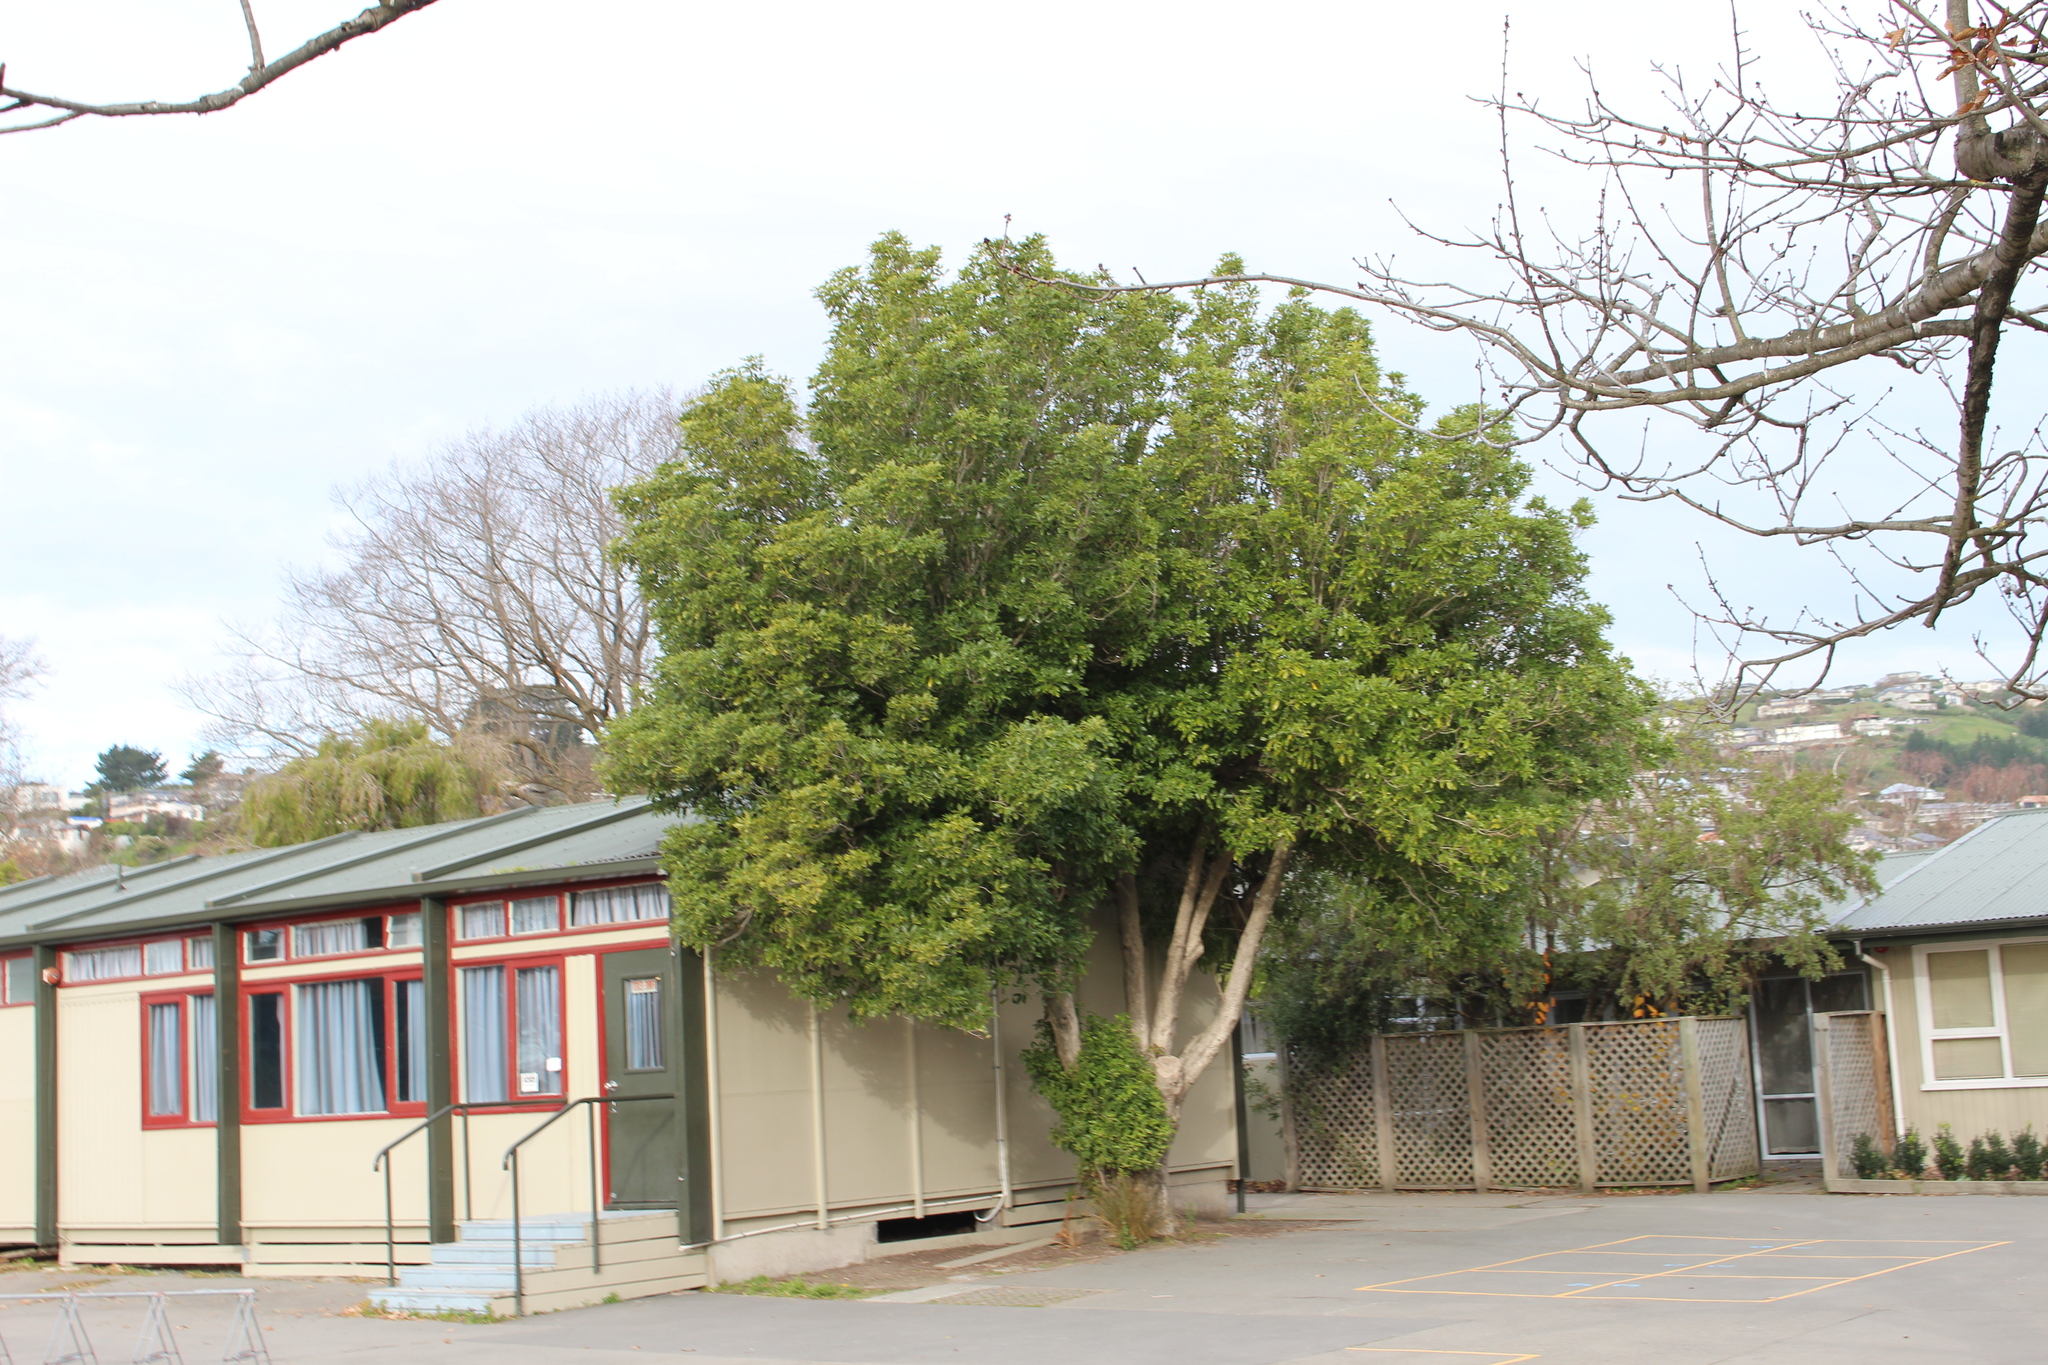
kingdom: Plantae
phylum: Tracheophyta
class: Magnoliopsida
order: Apiales
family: Pittosporaceae
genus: Pittosporum
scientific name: Pittosporum eugenioides
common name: Lemonwood
